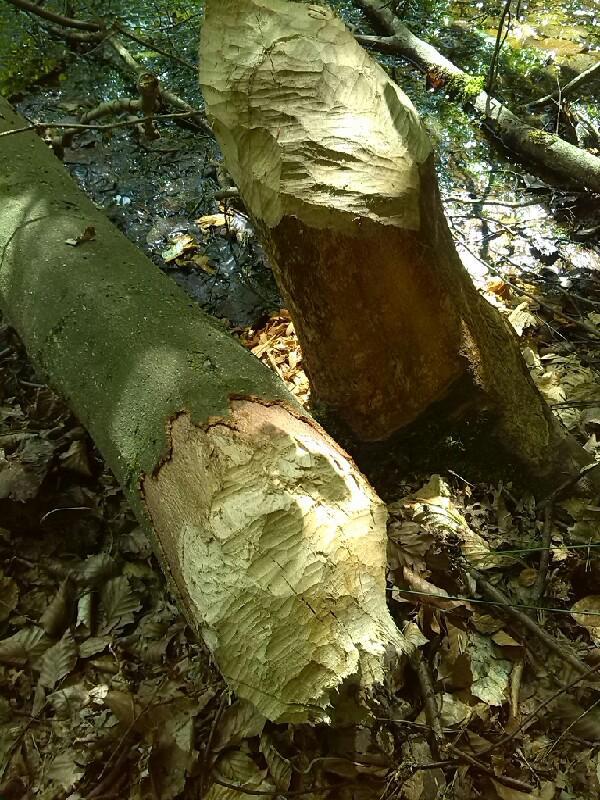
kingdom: Animalia
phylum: Chordata
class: Mammalia
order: Rodentia
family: Castoridae
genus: Castor
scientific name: Castor fiber
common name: Eurasian beaver
